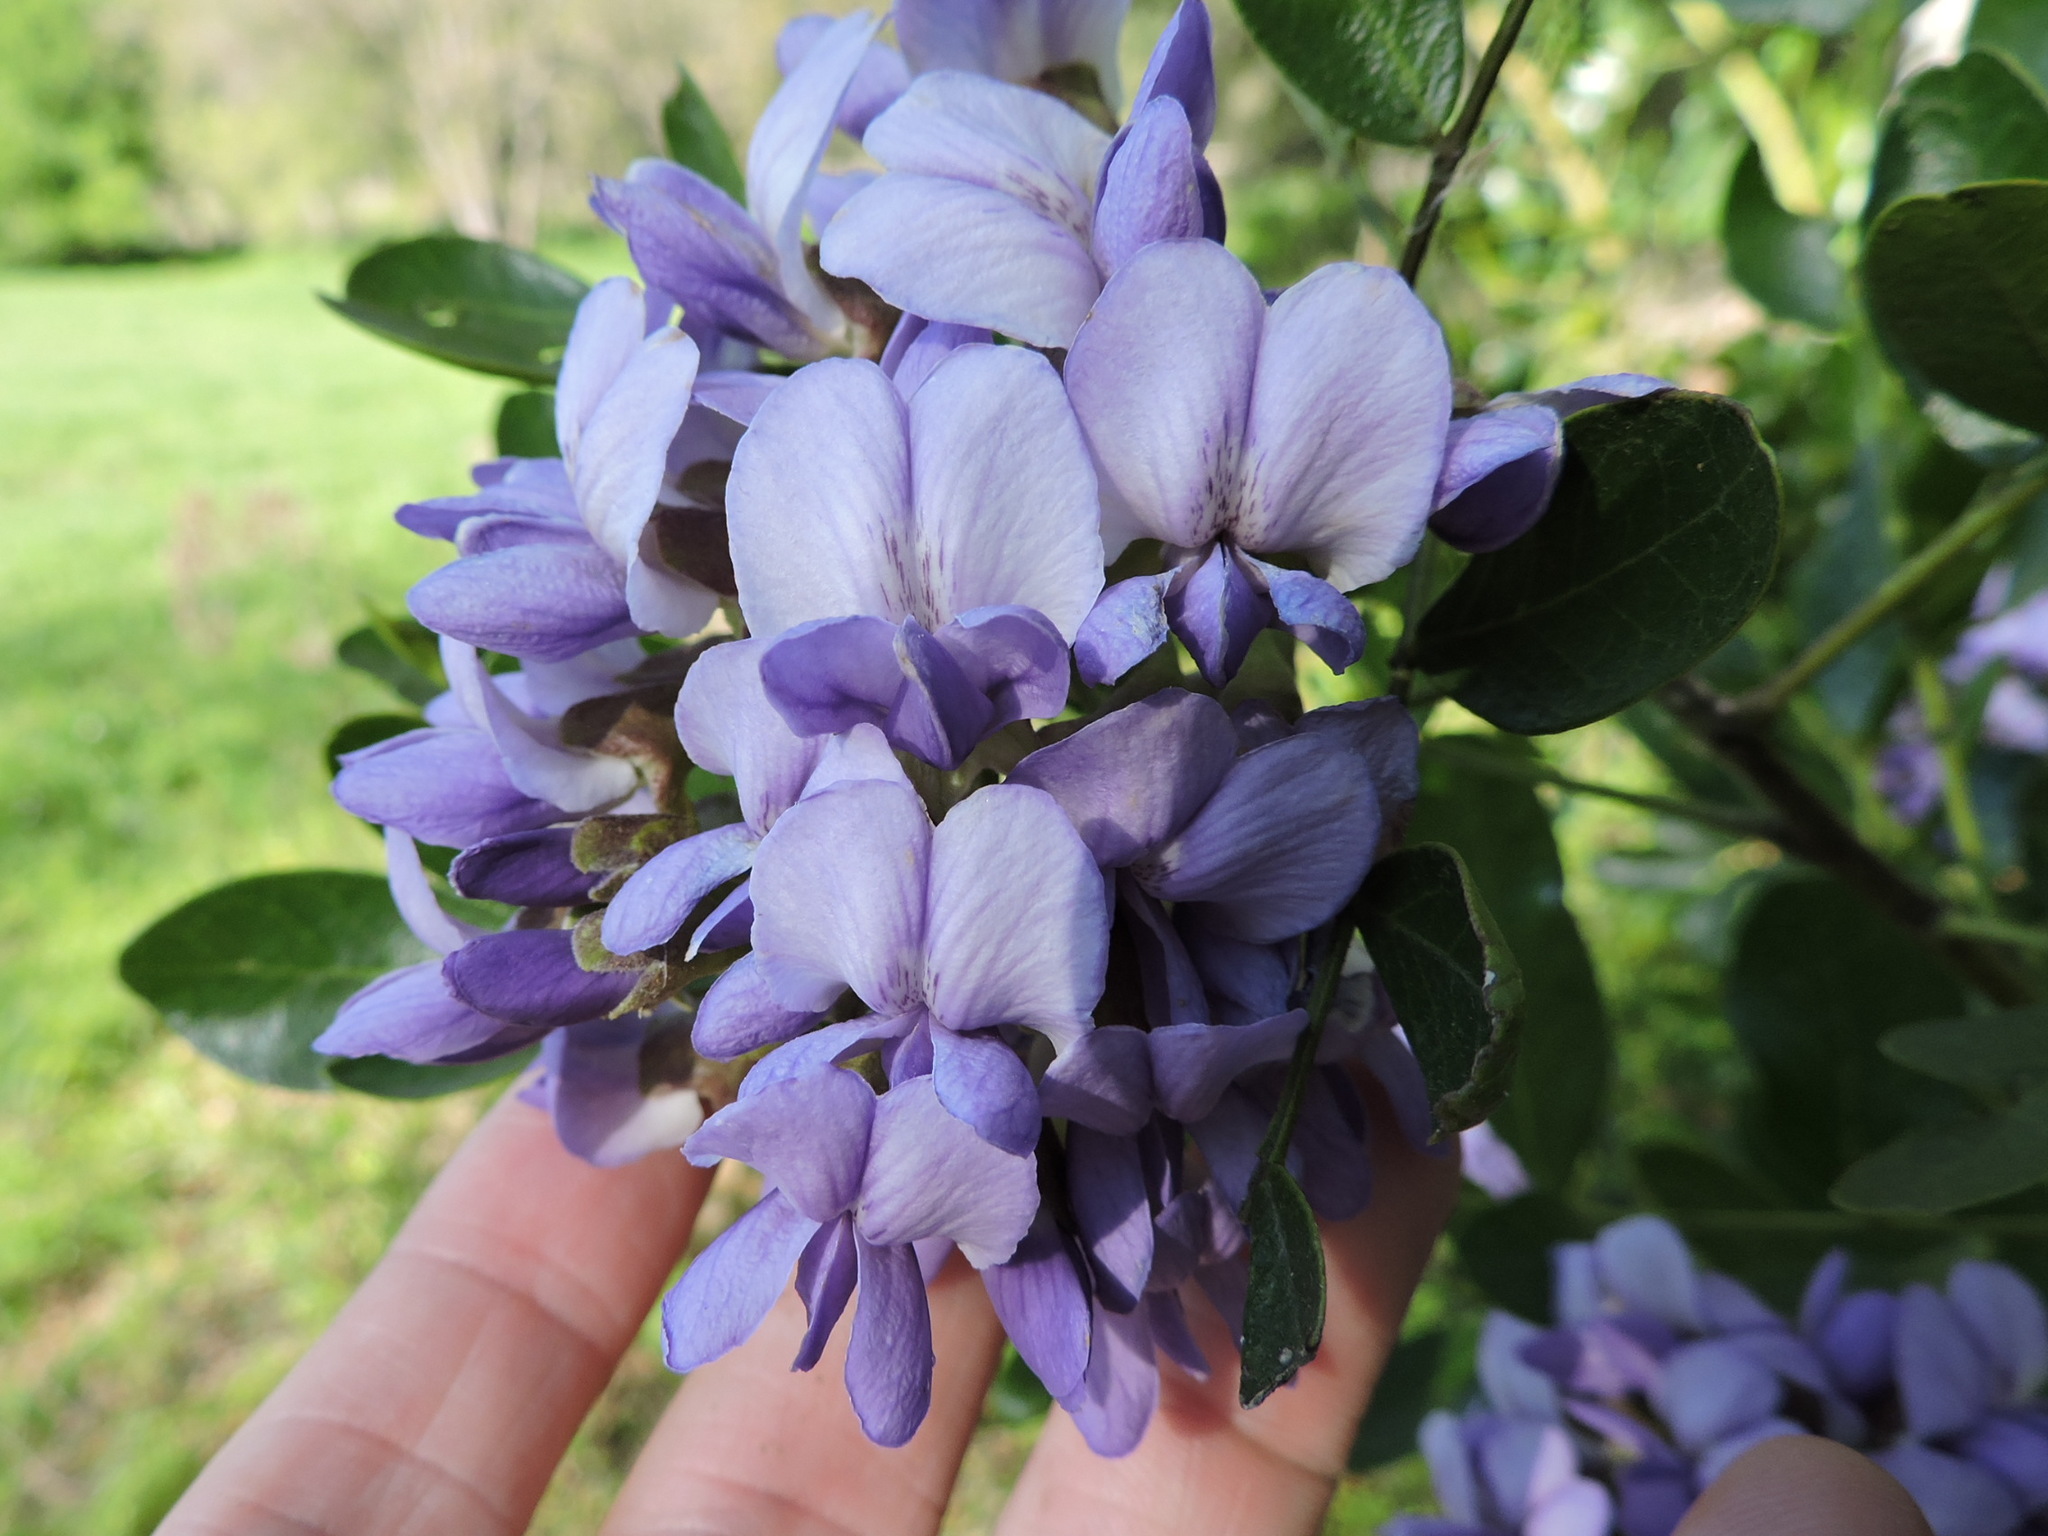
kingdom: Plantae
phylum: Tracheophyta
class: Magnoliopsida
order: Fabales
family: Fabaceae
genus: Dermatophyllum
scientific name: Dermatophyllum secundiflorum
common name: Texas-mountain-laurel
